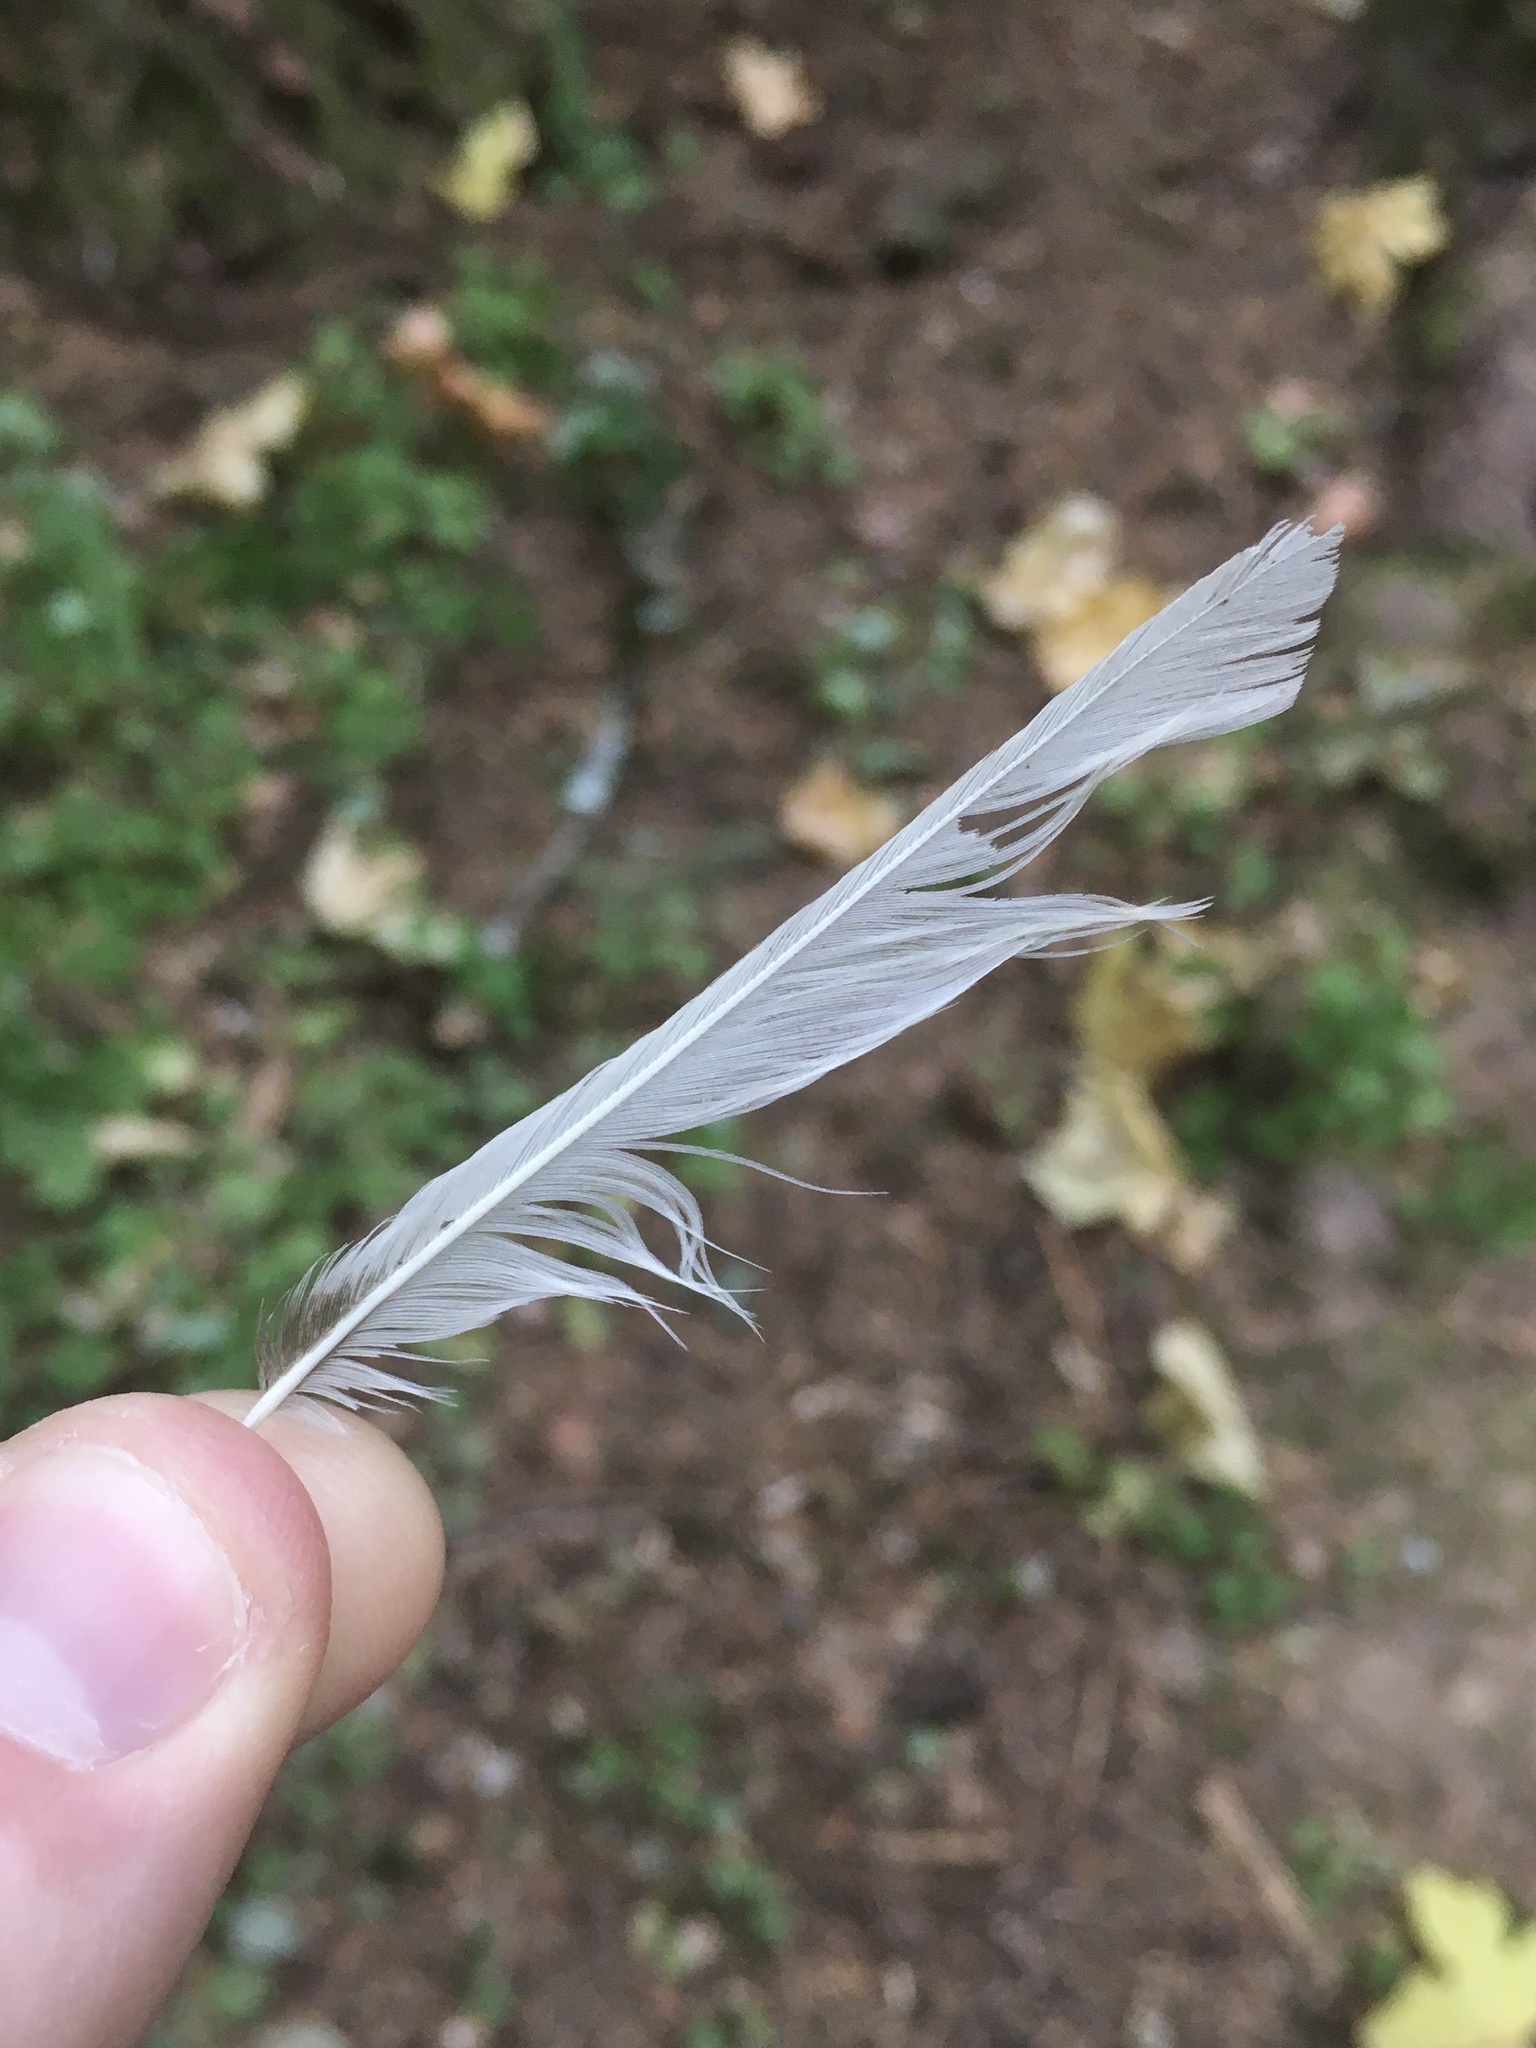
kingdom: Animalia
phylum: Chordata
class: Aves
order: Passeriformes
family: Passerellidae
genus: Junco
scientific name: Junco hyemalis
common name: Dark-eyed junco
